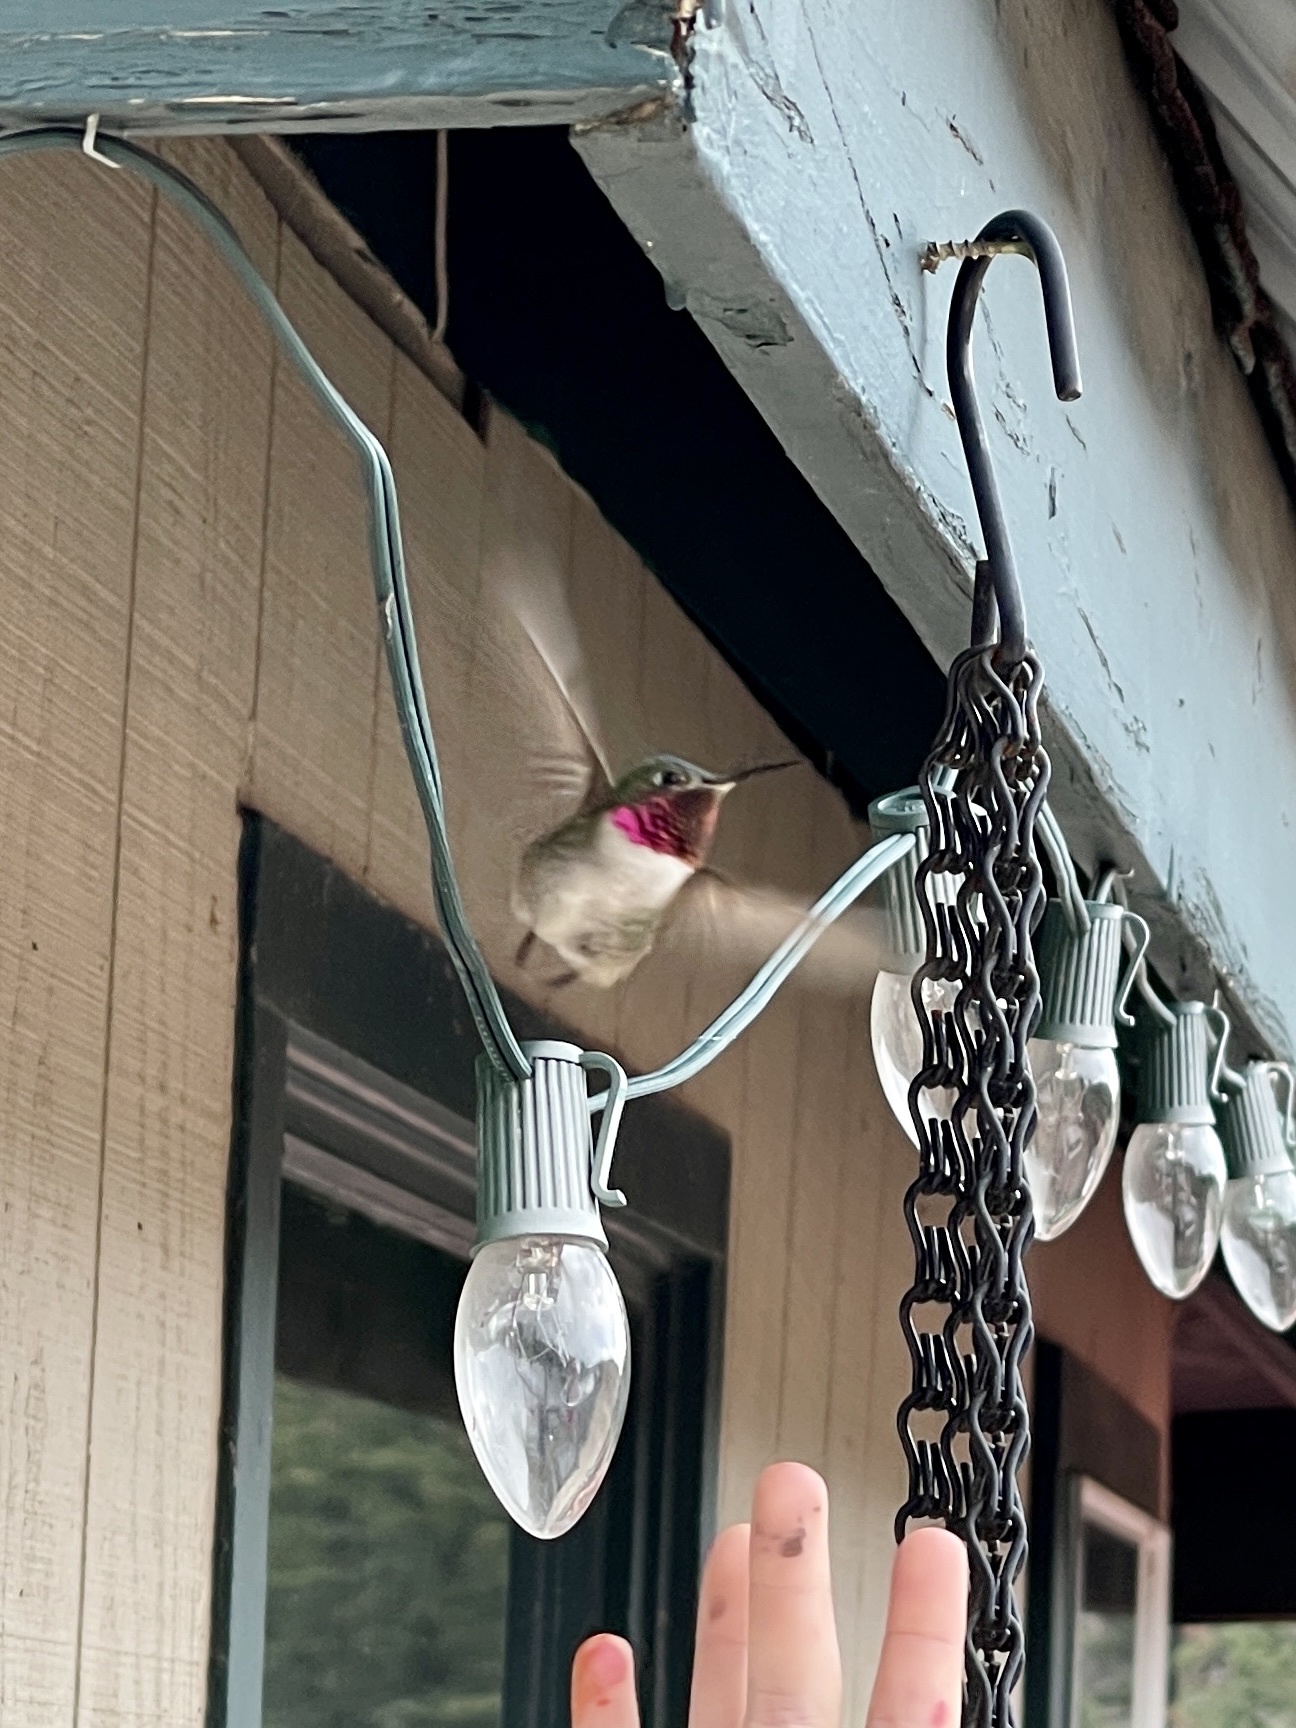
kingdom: Animalia
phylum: Chordata
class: Aves
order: Apodiformes
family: Trochilidae
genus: Selasphorus
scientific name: Selasphorus platycercus
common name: Broad-tailed hummingbird
